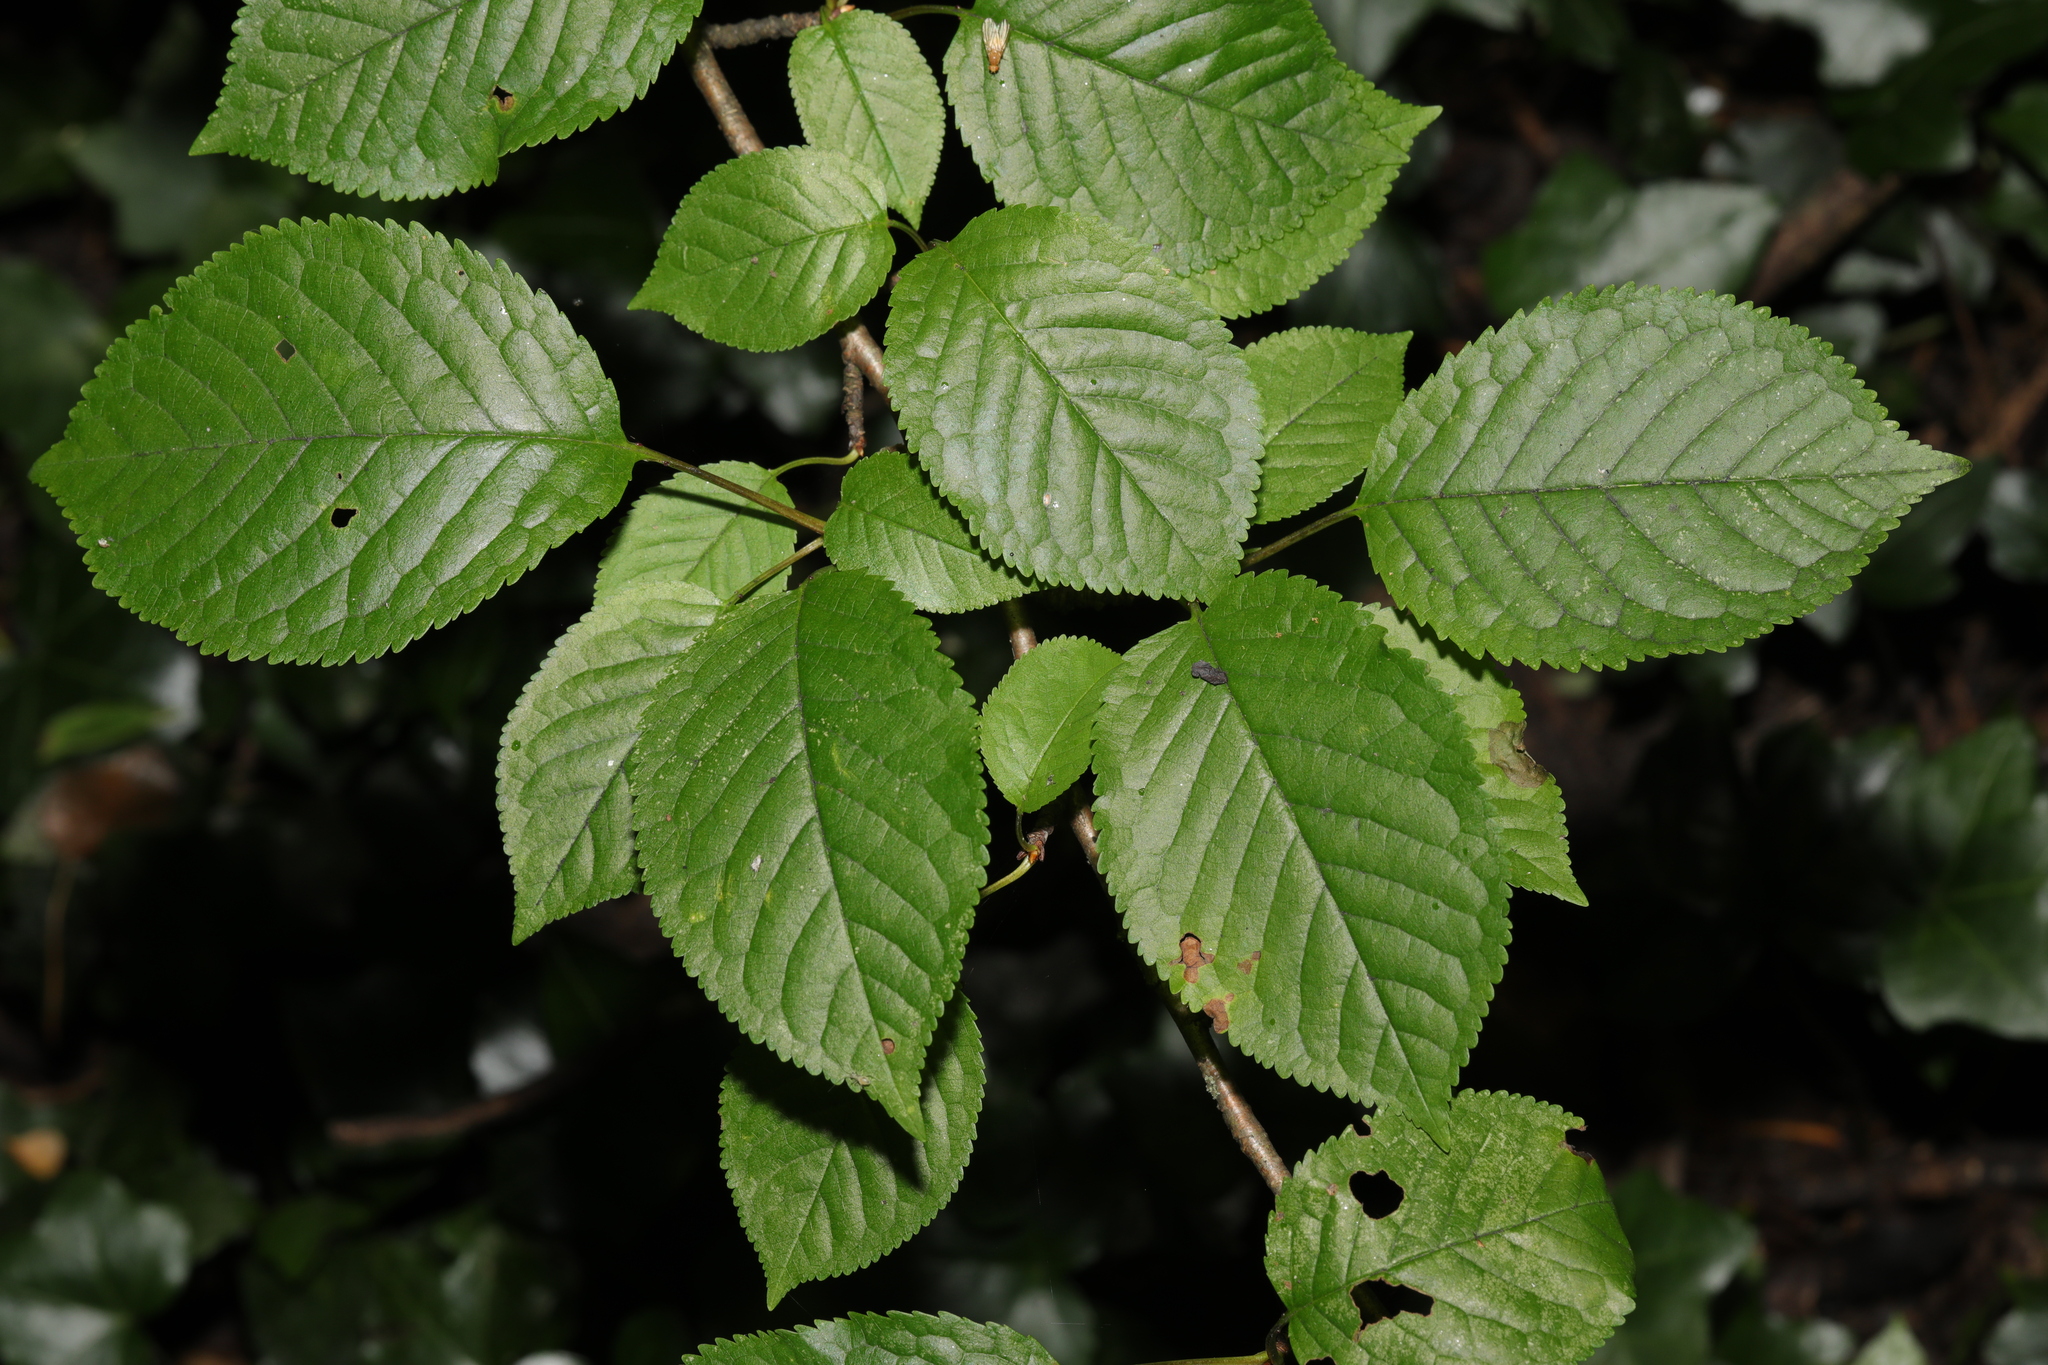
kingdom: Plantae
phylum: Tracheophyta
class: Magnoliopsida
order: Rosales
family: Rosaceae
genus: Prunus
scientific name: Prunus avium
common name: Sweet cherry
